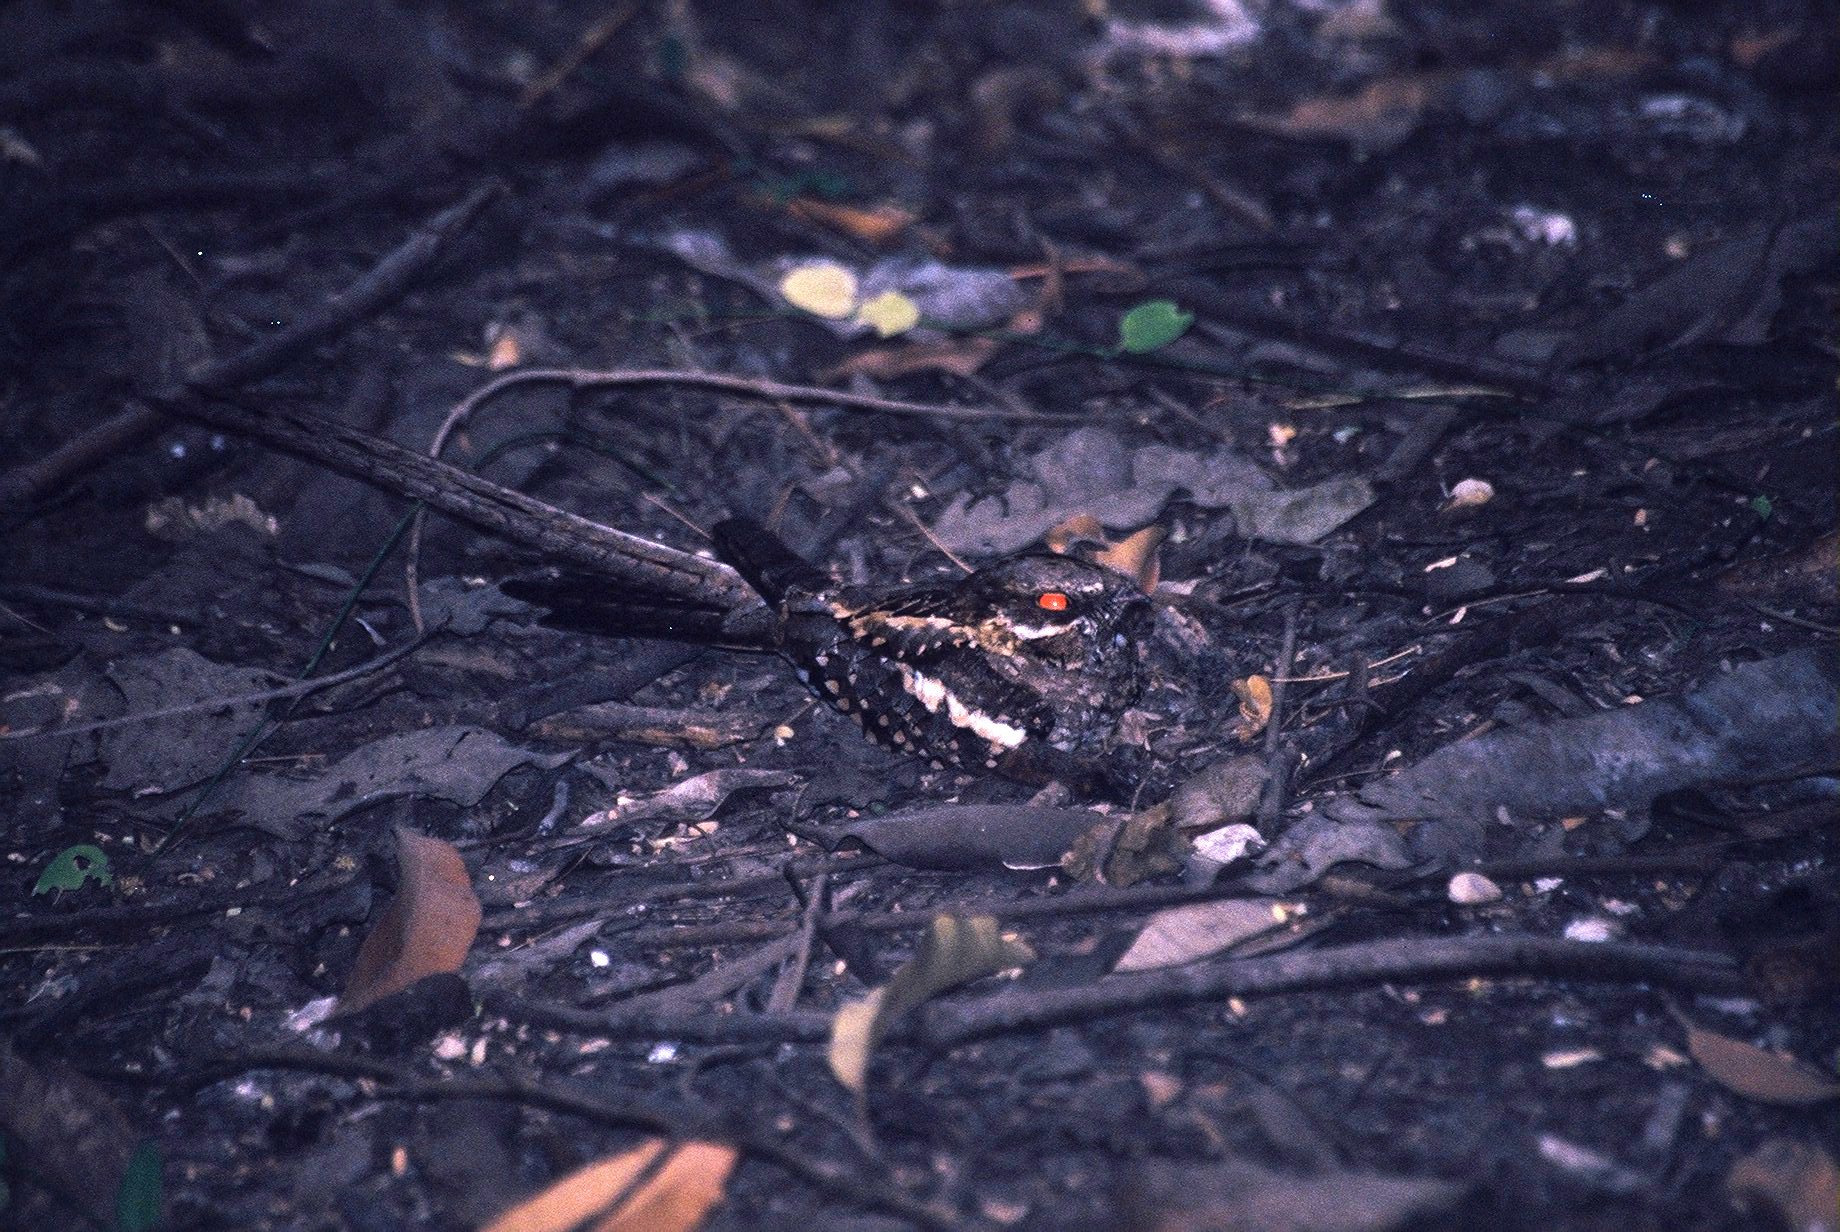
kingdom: Animalia
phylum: Chordata
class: Aves
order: Caprimulgiformes
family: Caprimulgidae
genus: Caprimulgus
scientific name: Caprimulgus climacurus
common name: Long-tailed nightjar
